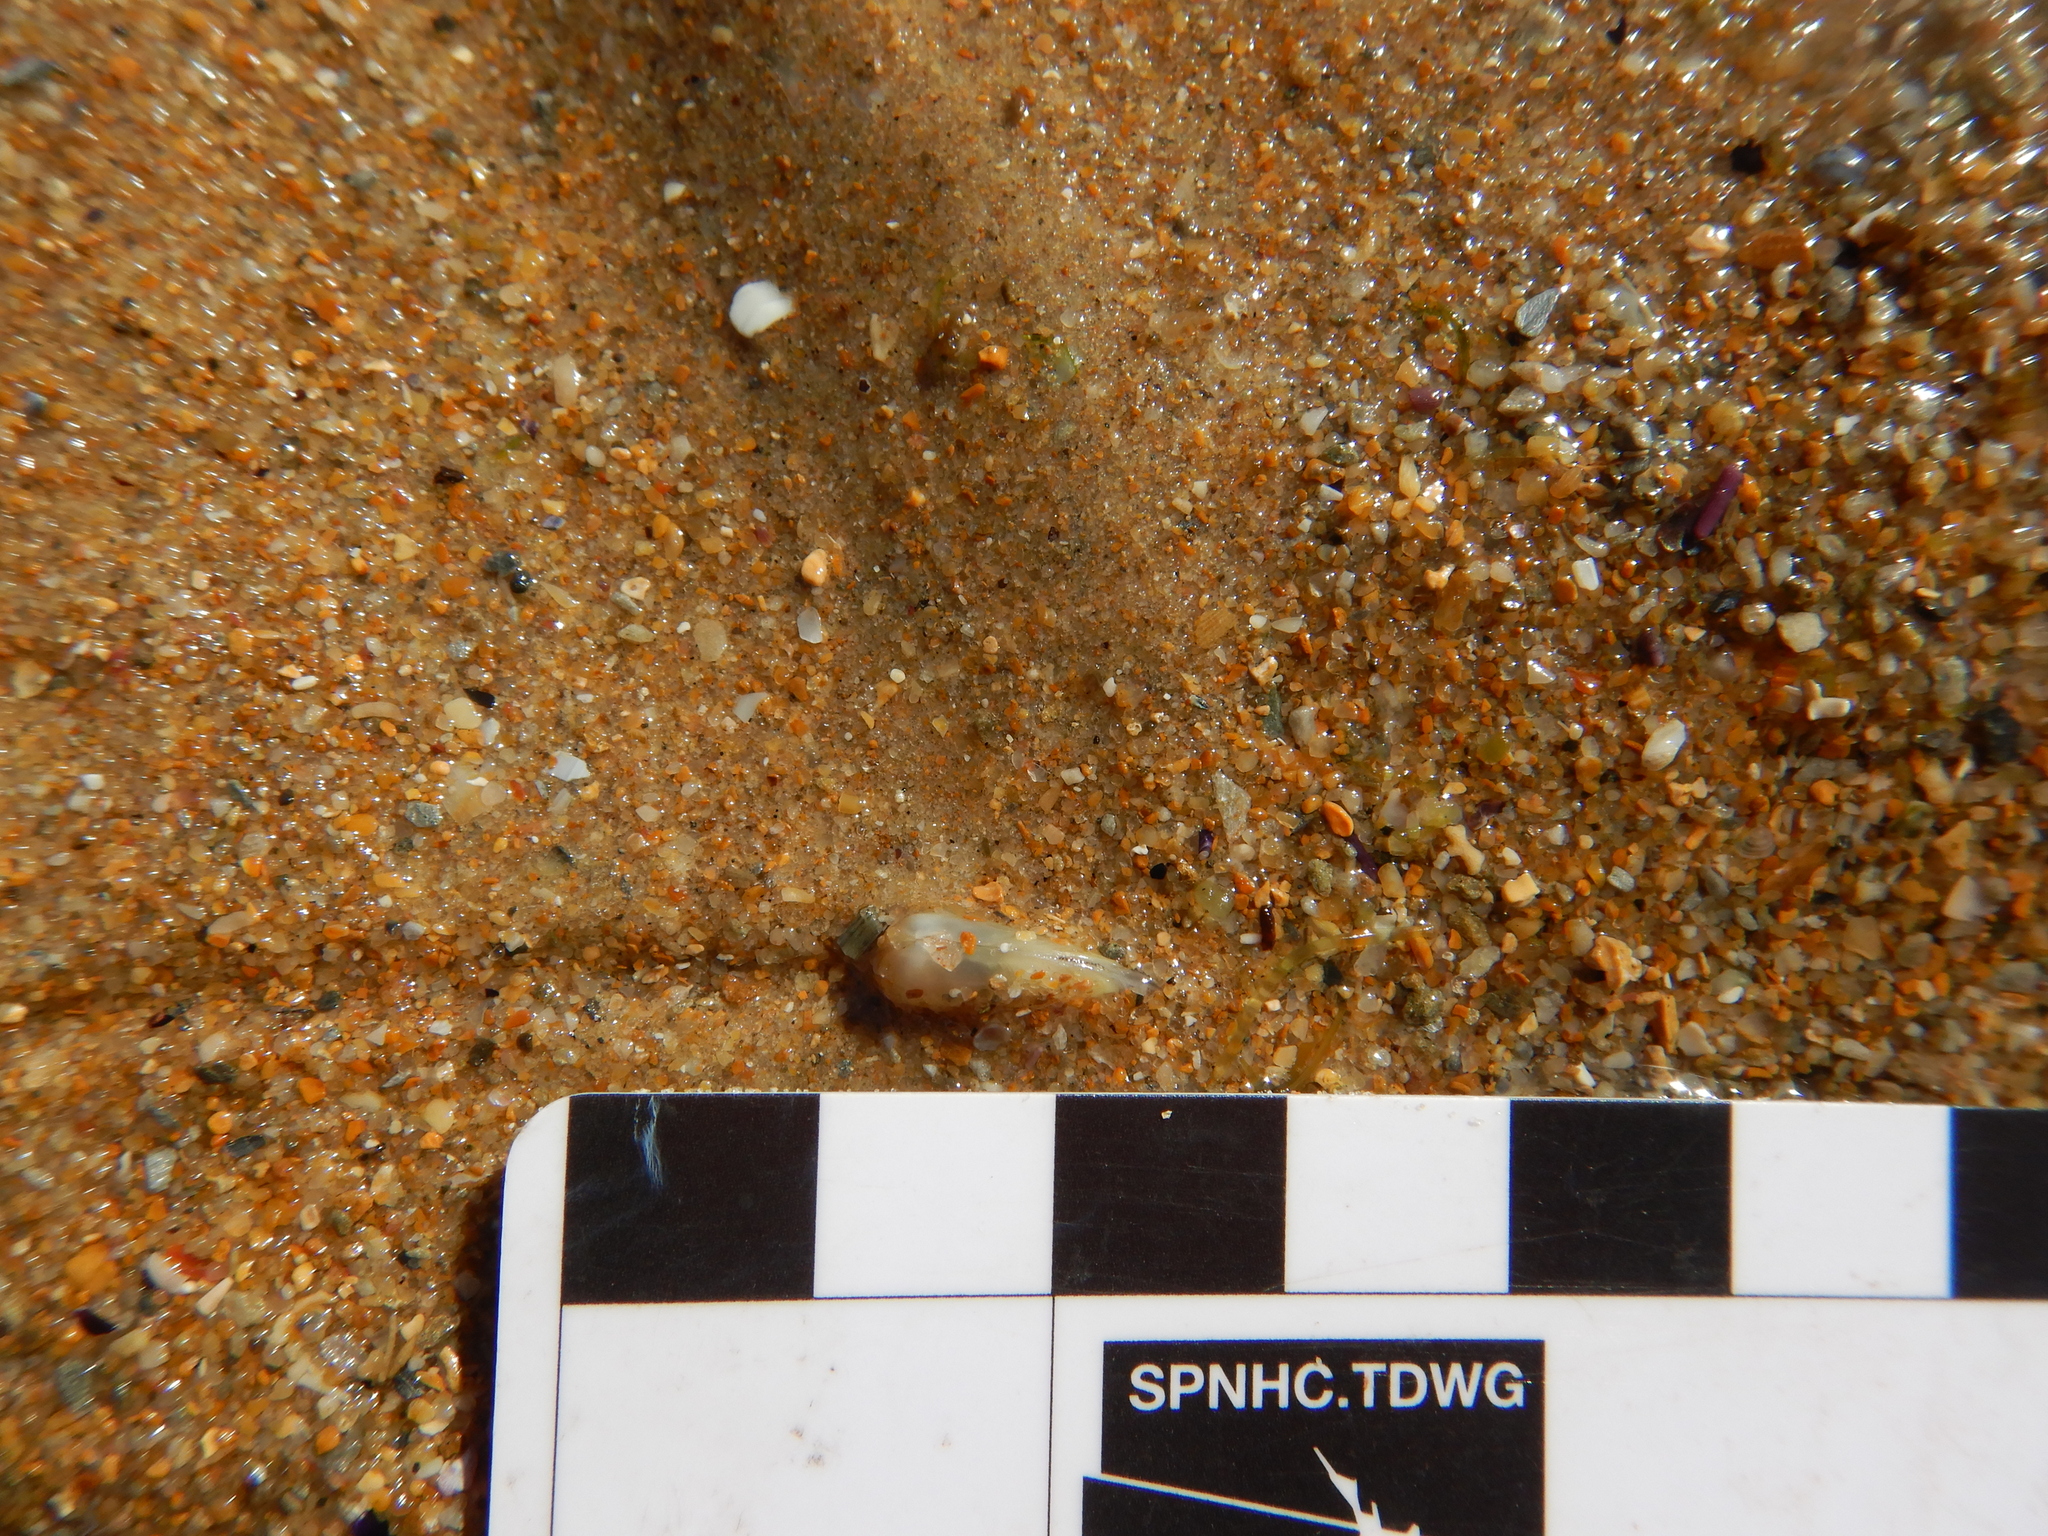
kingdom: Animalia
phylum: Mollusca
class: Bivalvia
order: Venerida
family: Mesodesmatidae
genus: Paphies
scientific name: Paphies angusta
